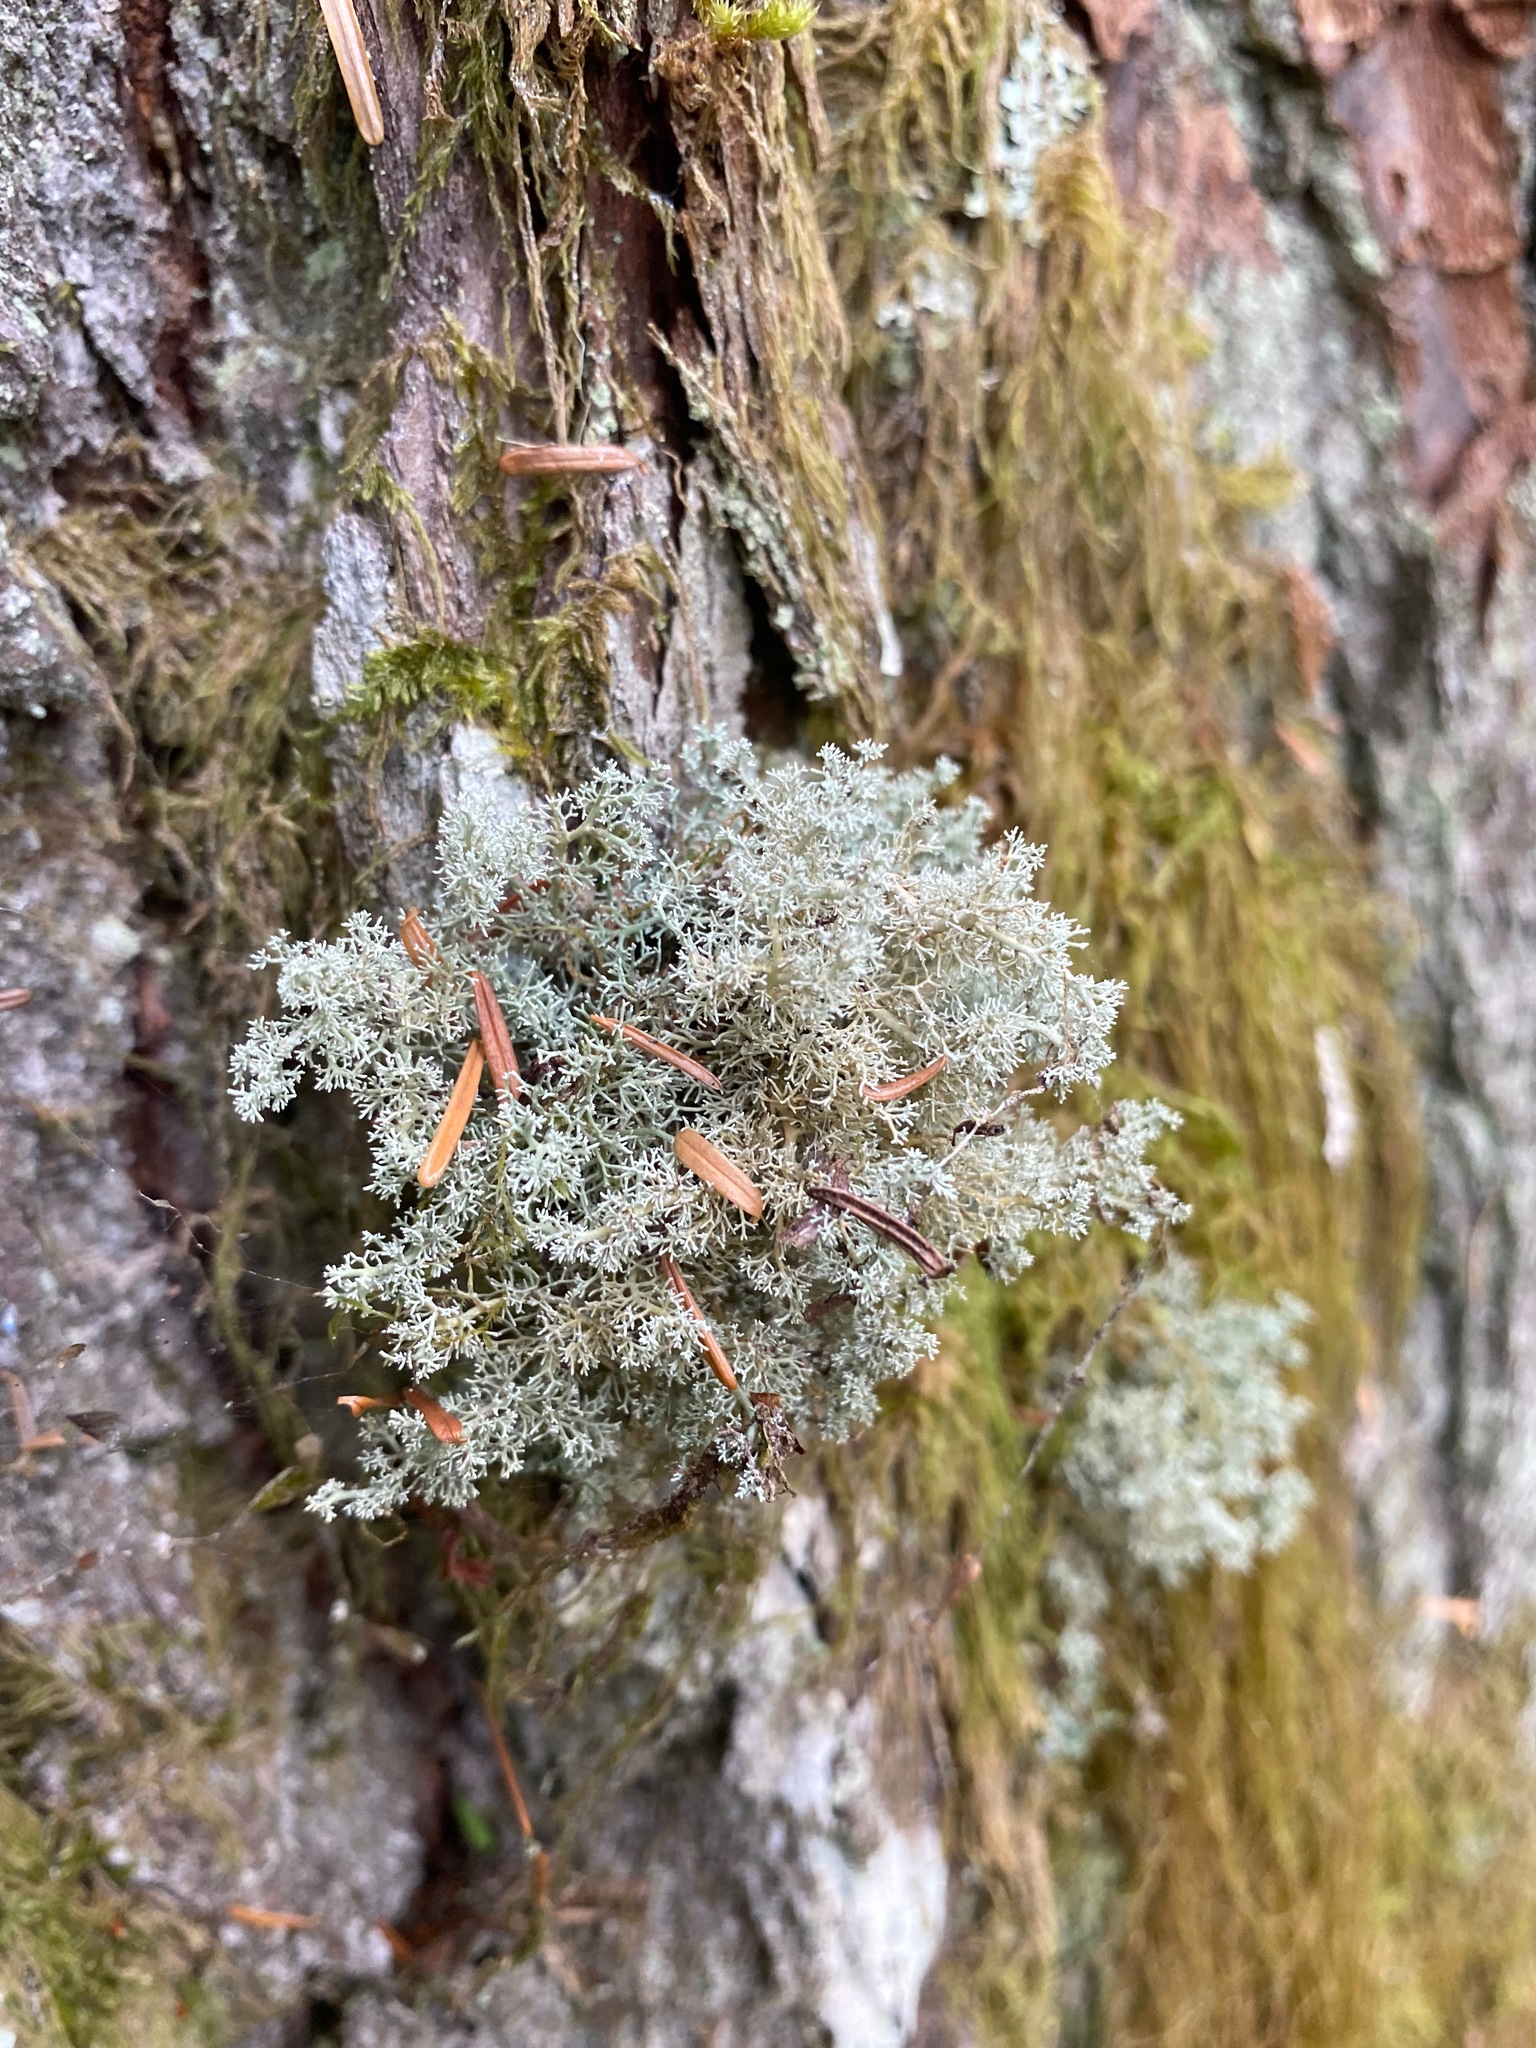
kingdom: Fungi
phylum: Ascomycota
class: Lecanoromycetes
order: Lecanorales
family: Sphaerophoraceae
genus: Sphaerophorus
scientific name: Sphaerophorus globosus
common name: Globe ball lichen
